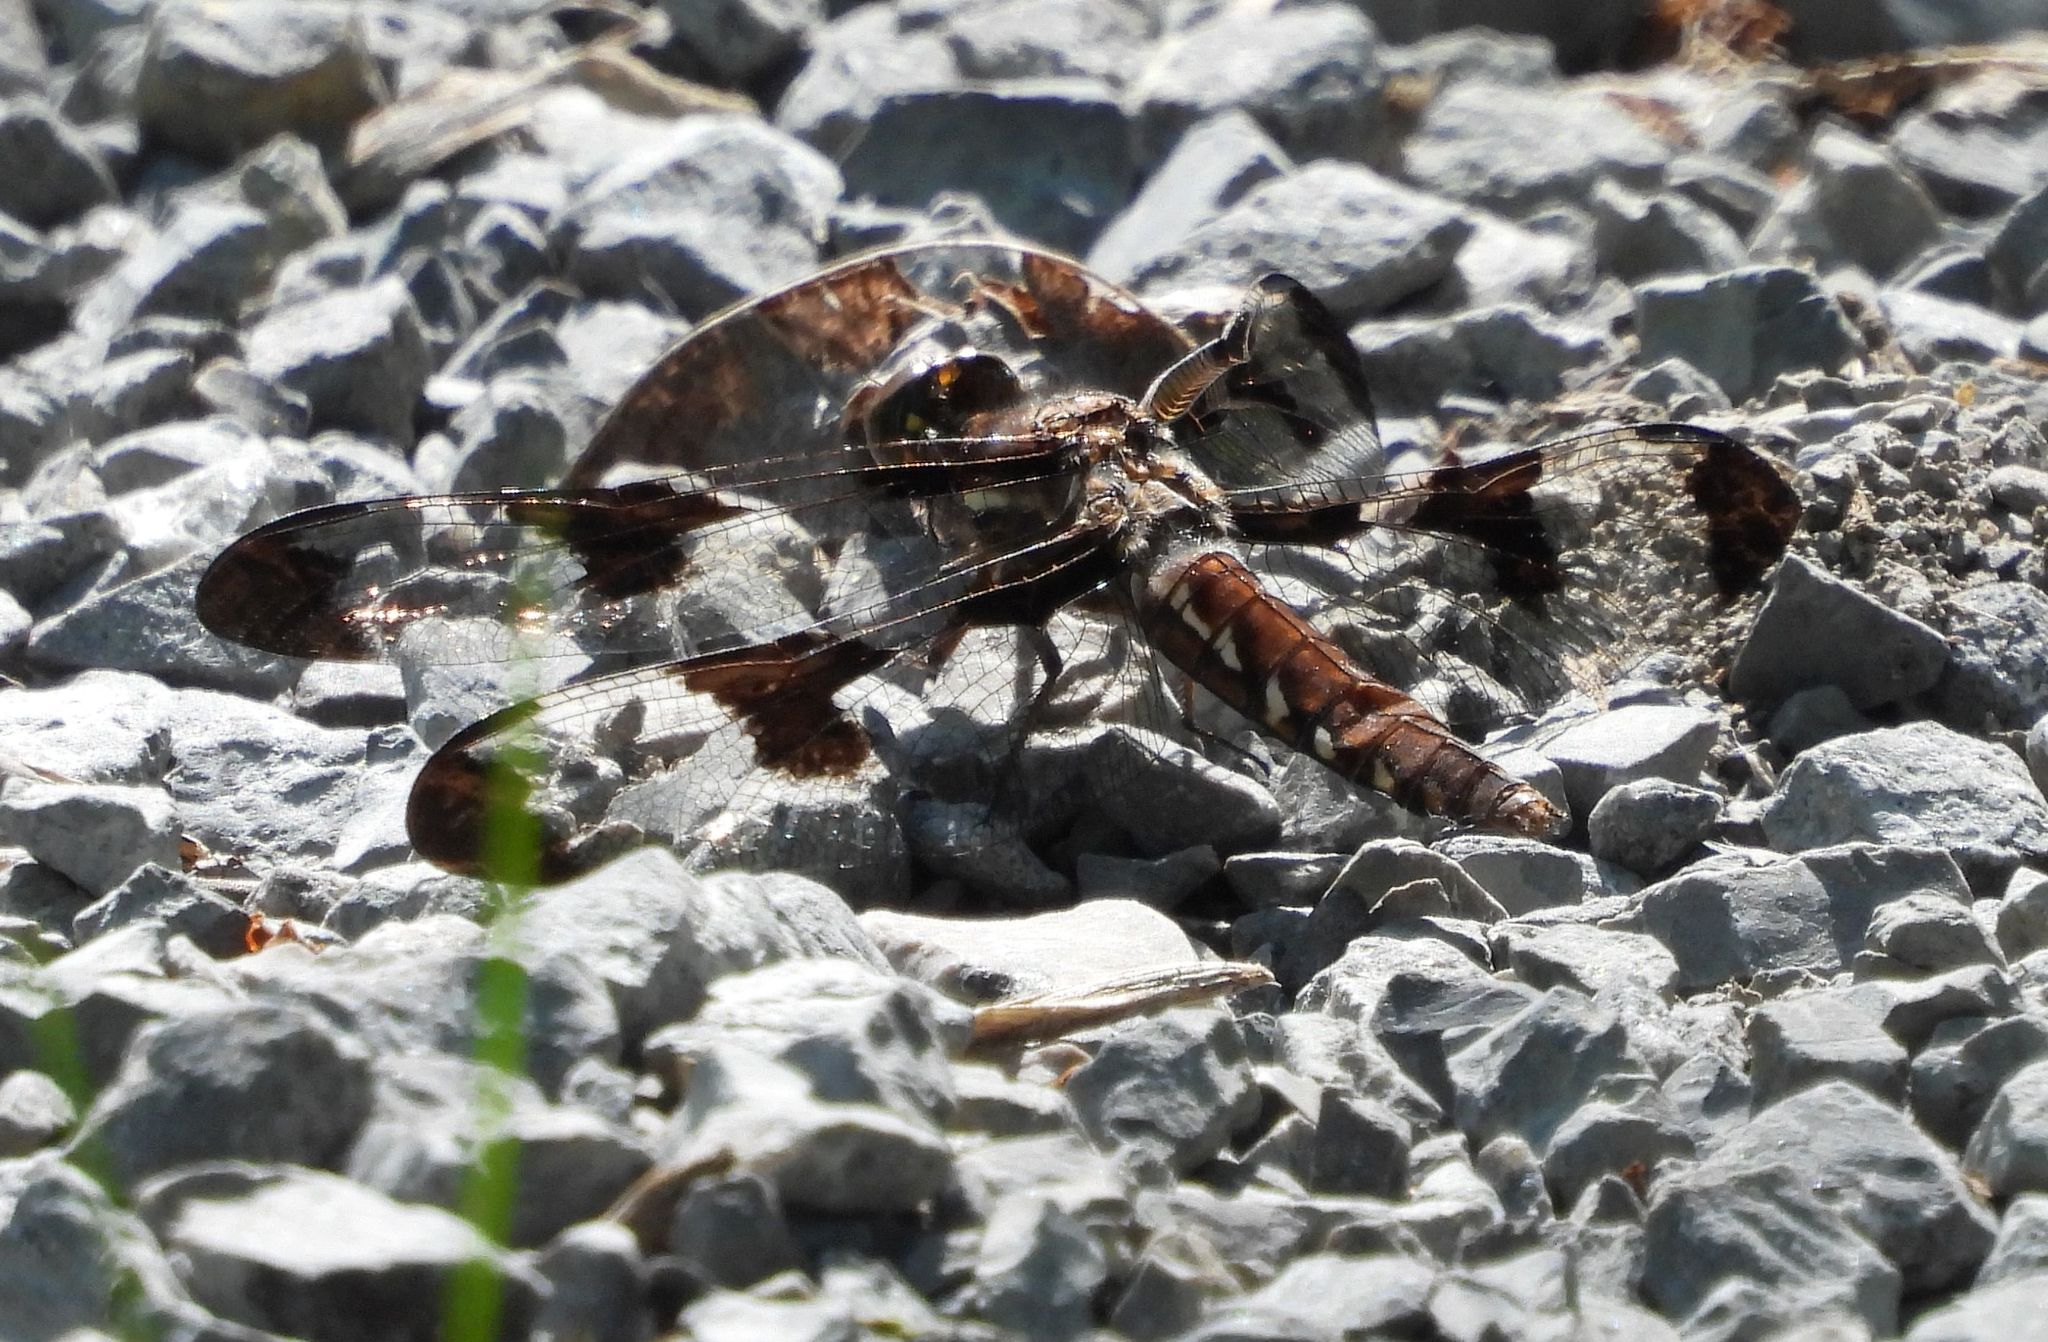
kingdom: Animalia
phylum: Arthropoda
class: Insecta
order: Odonata
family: Libellulidae
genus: Plathemis
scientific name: Plathemis lydia
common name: Common whitetail
